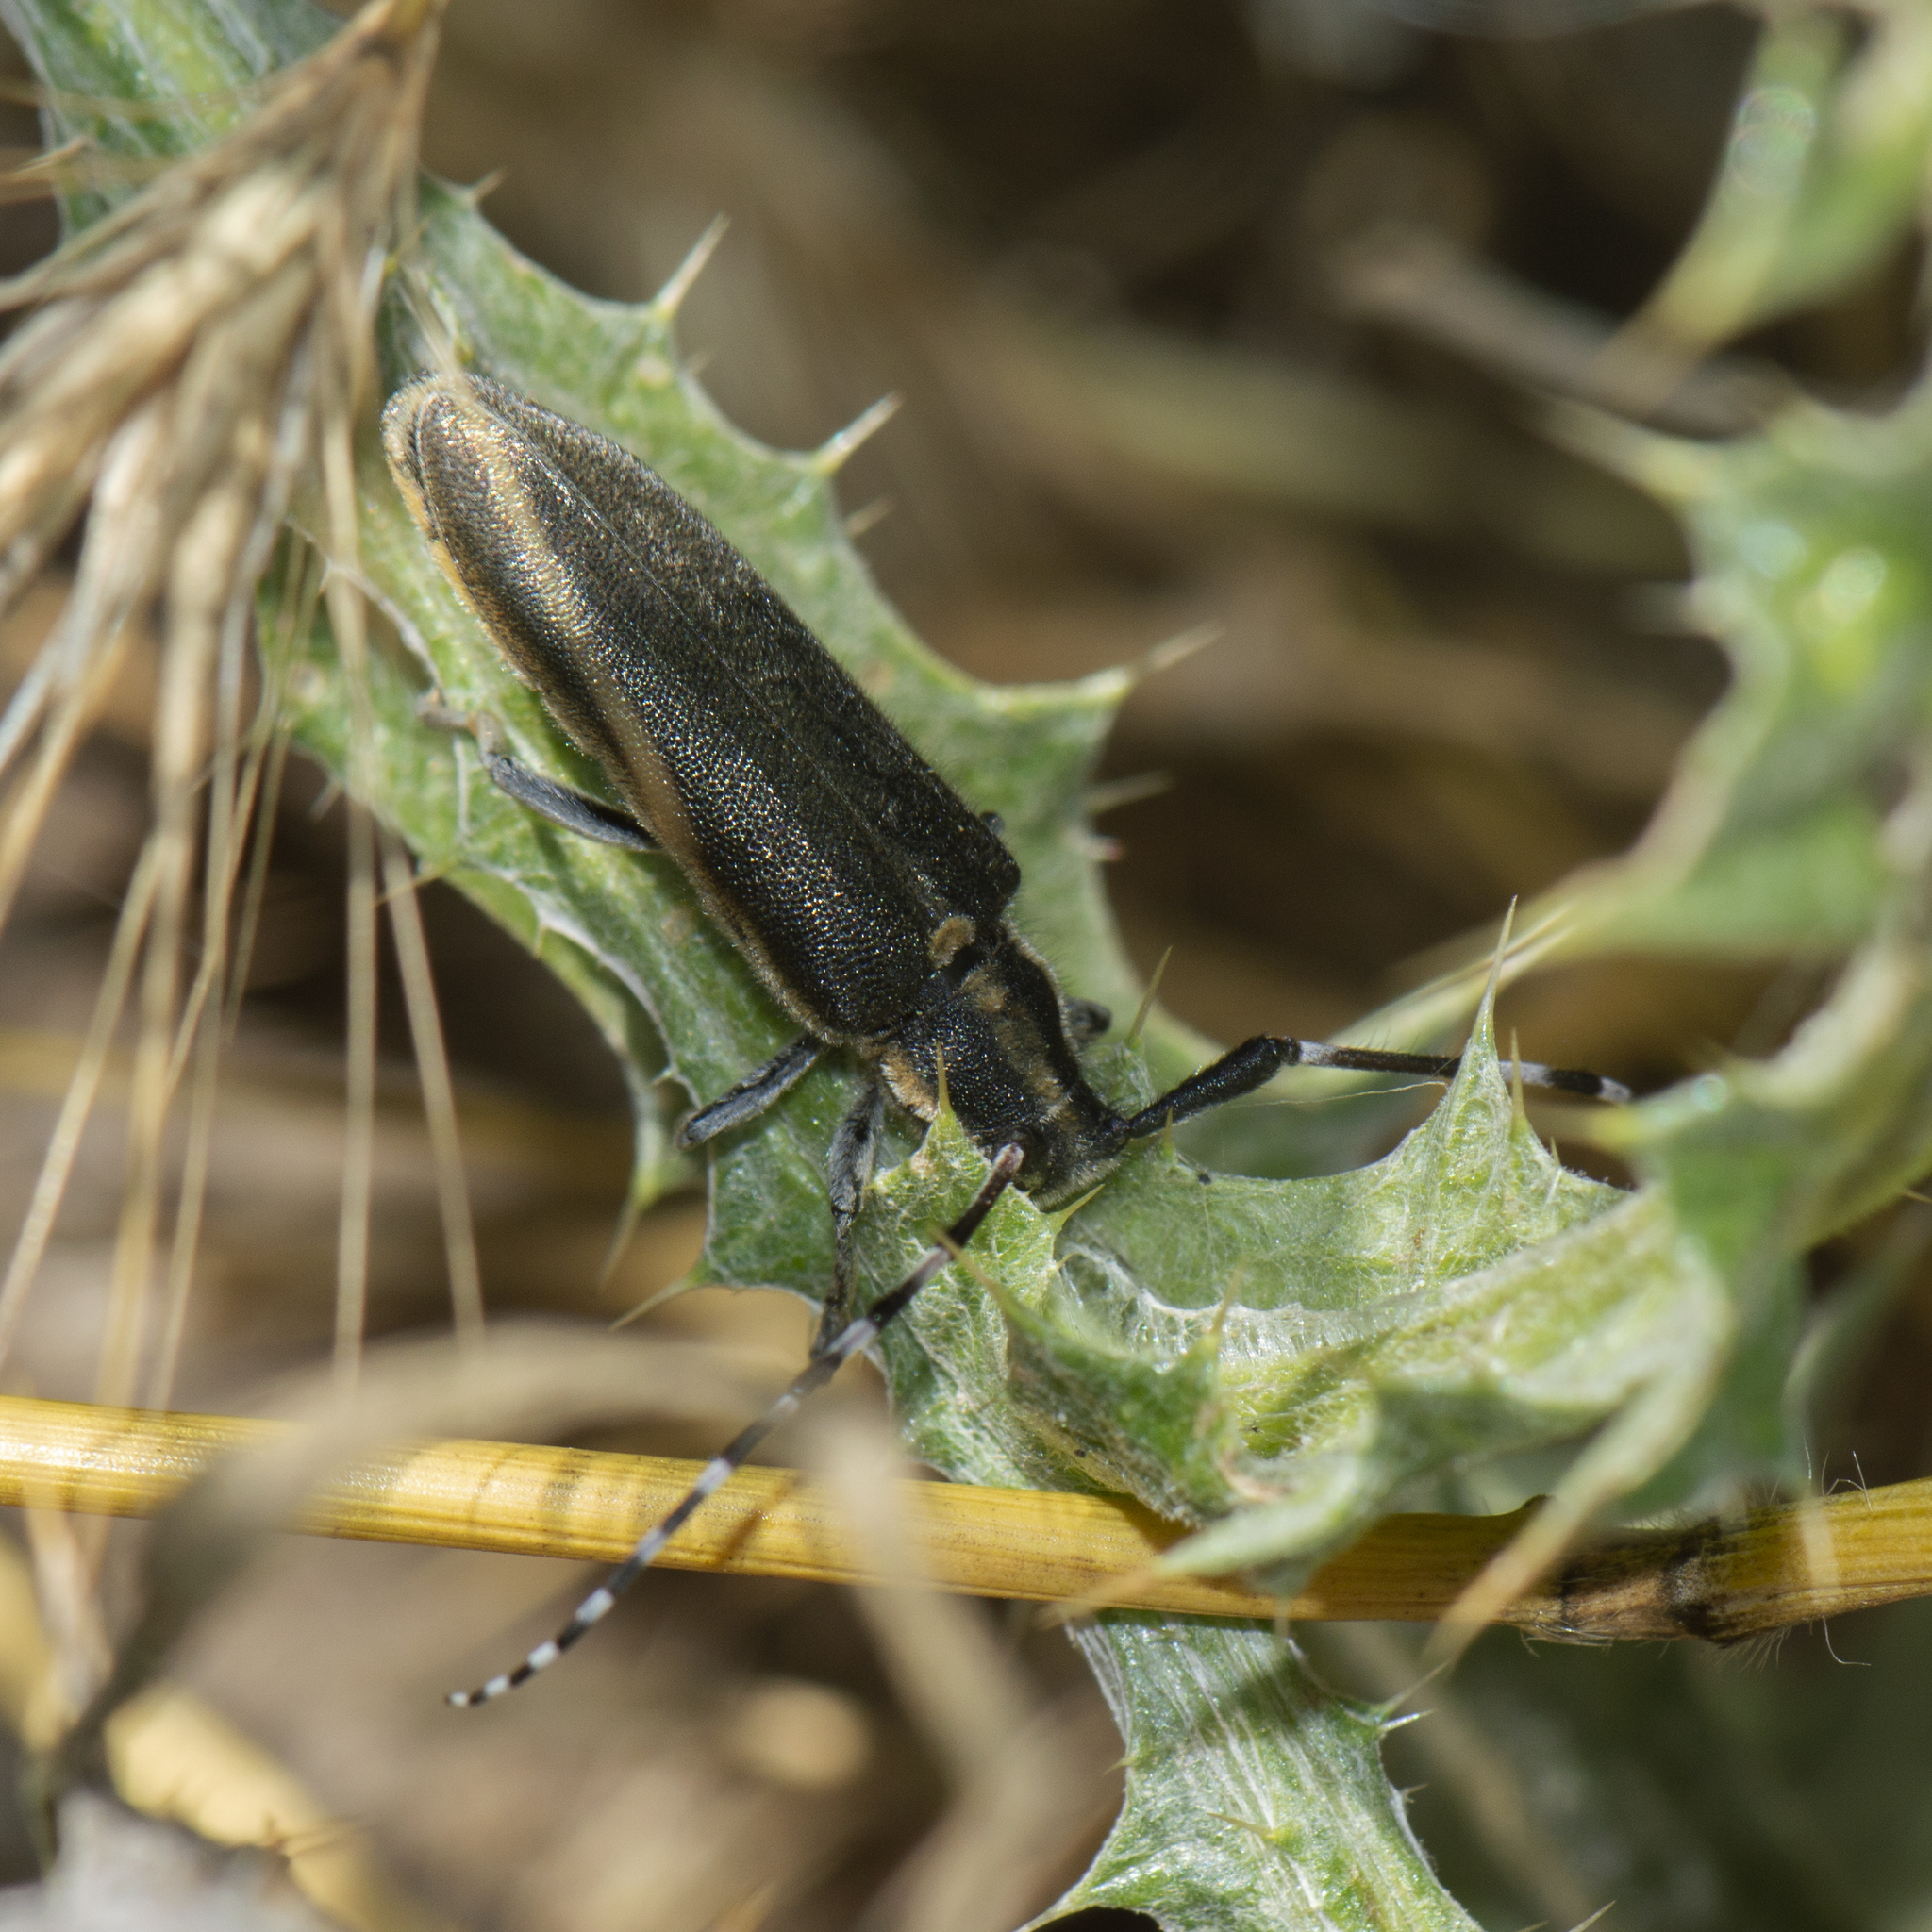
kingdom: Animalia
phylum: Arthropoda
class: Insecta
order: Coleoptera
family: Cerambycidae
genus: Agapanthia
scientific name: Agapanthia cynarae
